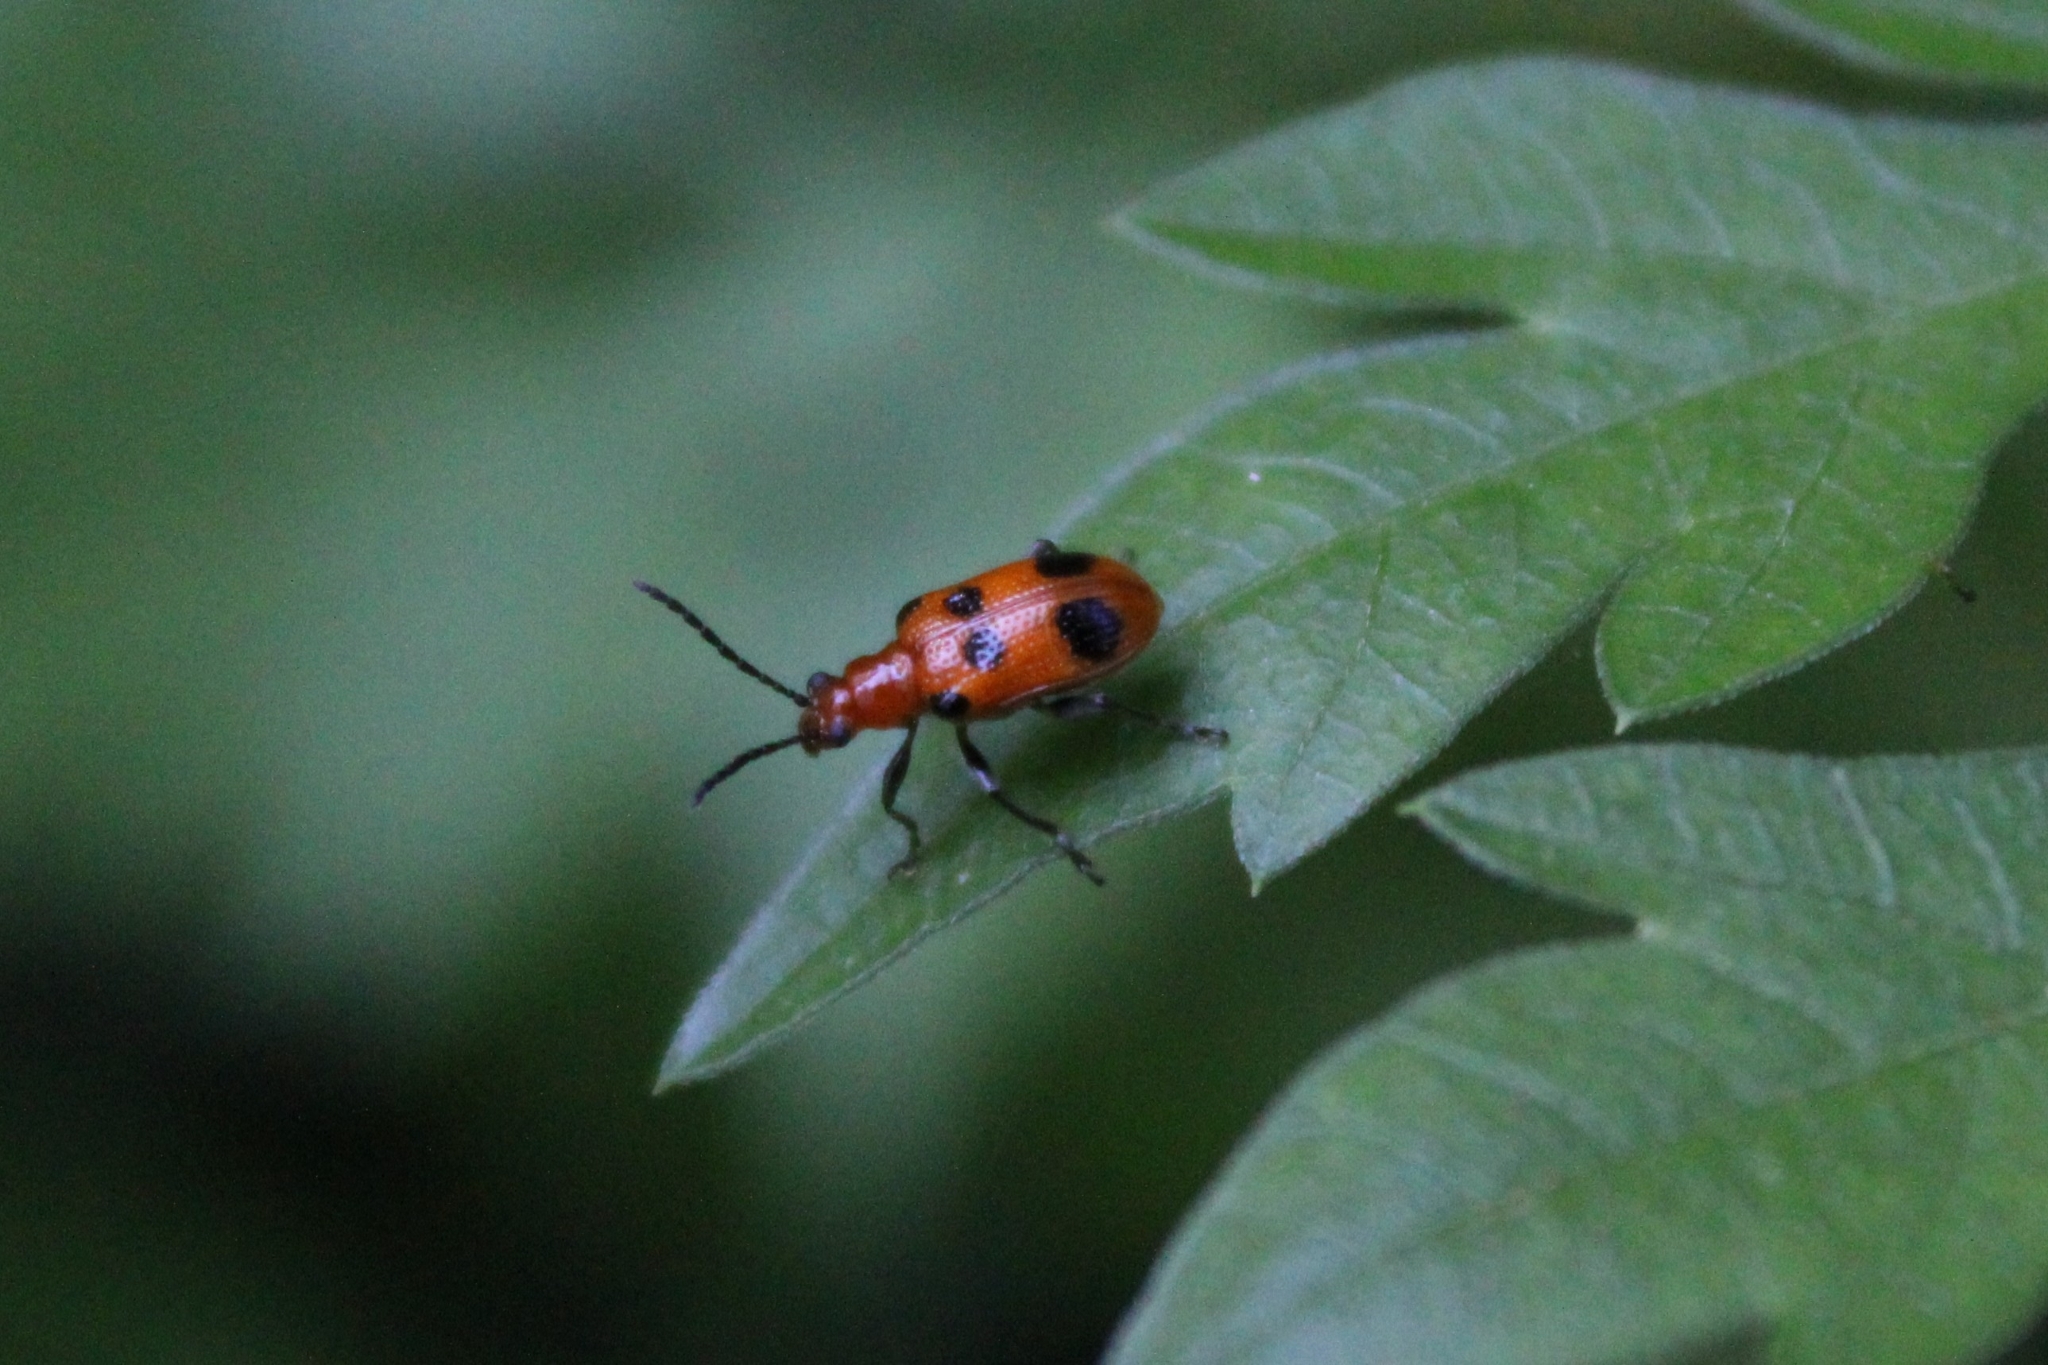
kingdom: Animalia
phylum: Arthropoda
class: Insecta
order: Coleoptera
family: Chrysomelidae
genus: Neolema
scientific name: Neolema sexpunctata
